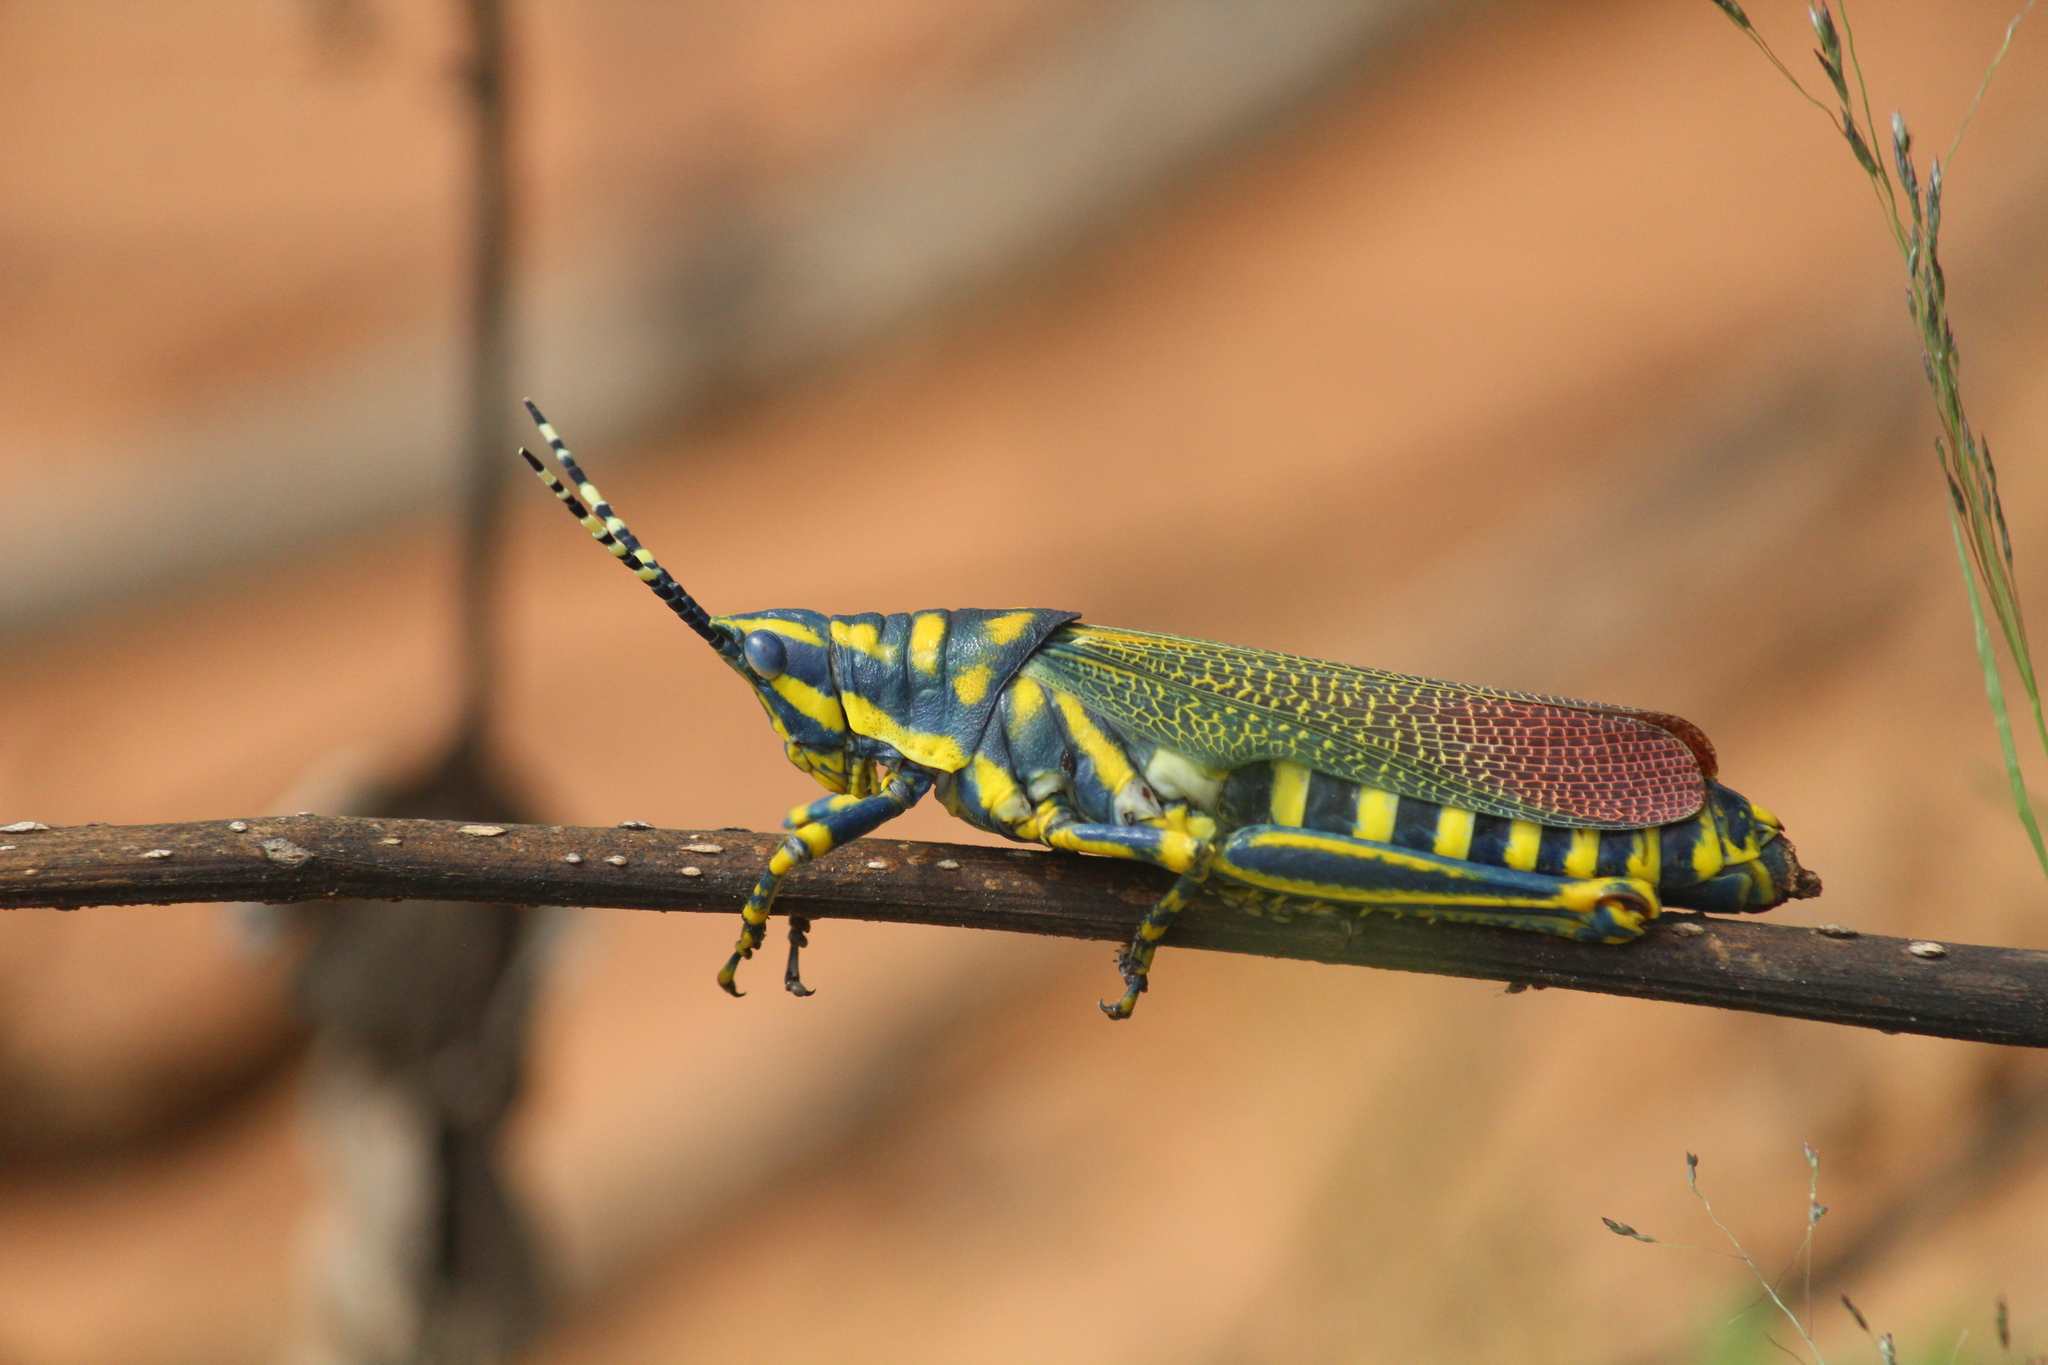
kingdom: Animalia
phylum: Arthropoda
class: Insecta
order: Orthoptera
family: Pyrgomorphidae
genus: Poekilocerus
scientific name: Poekilocerus pictus
